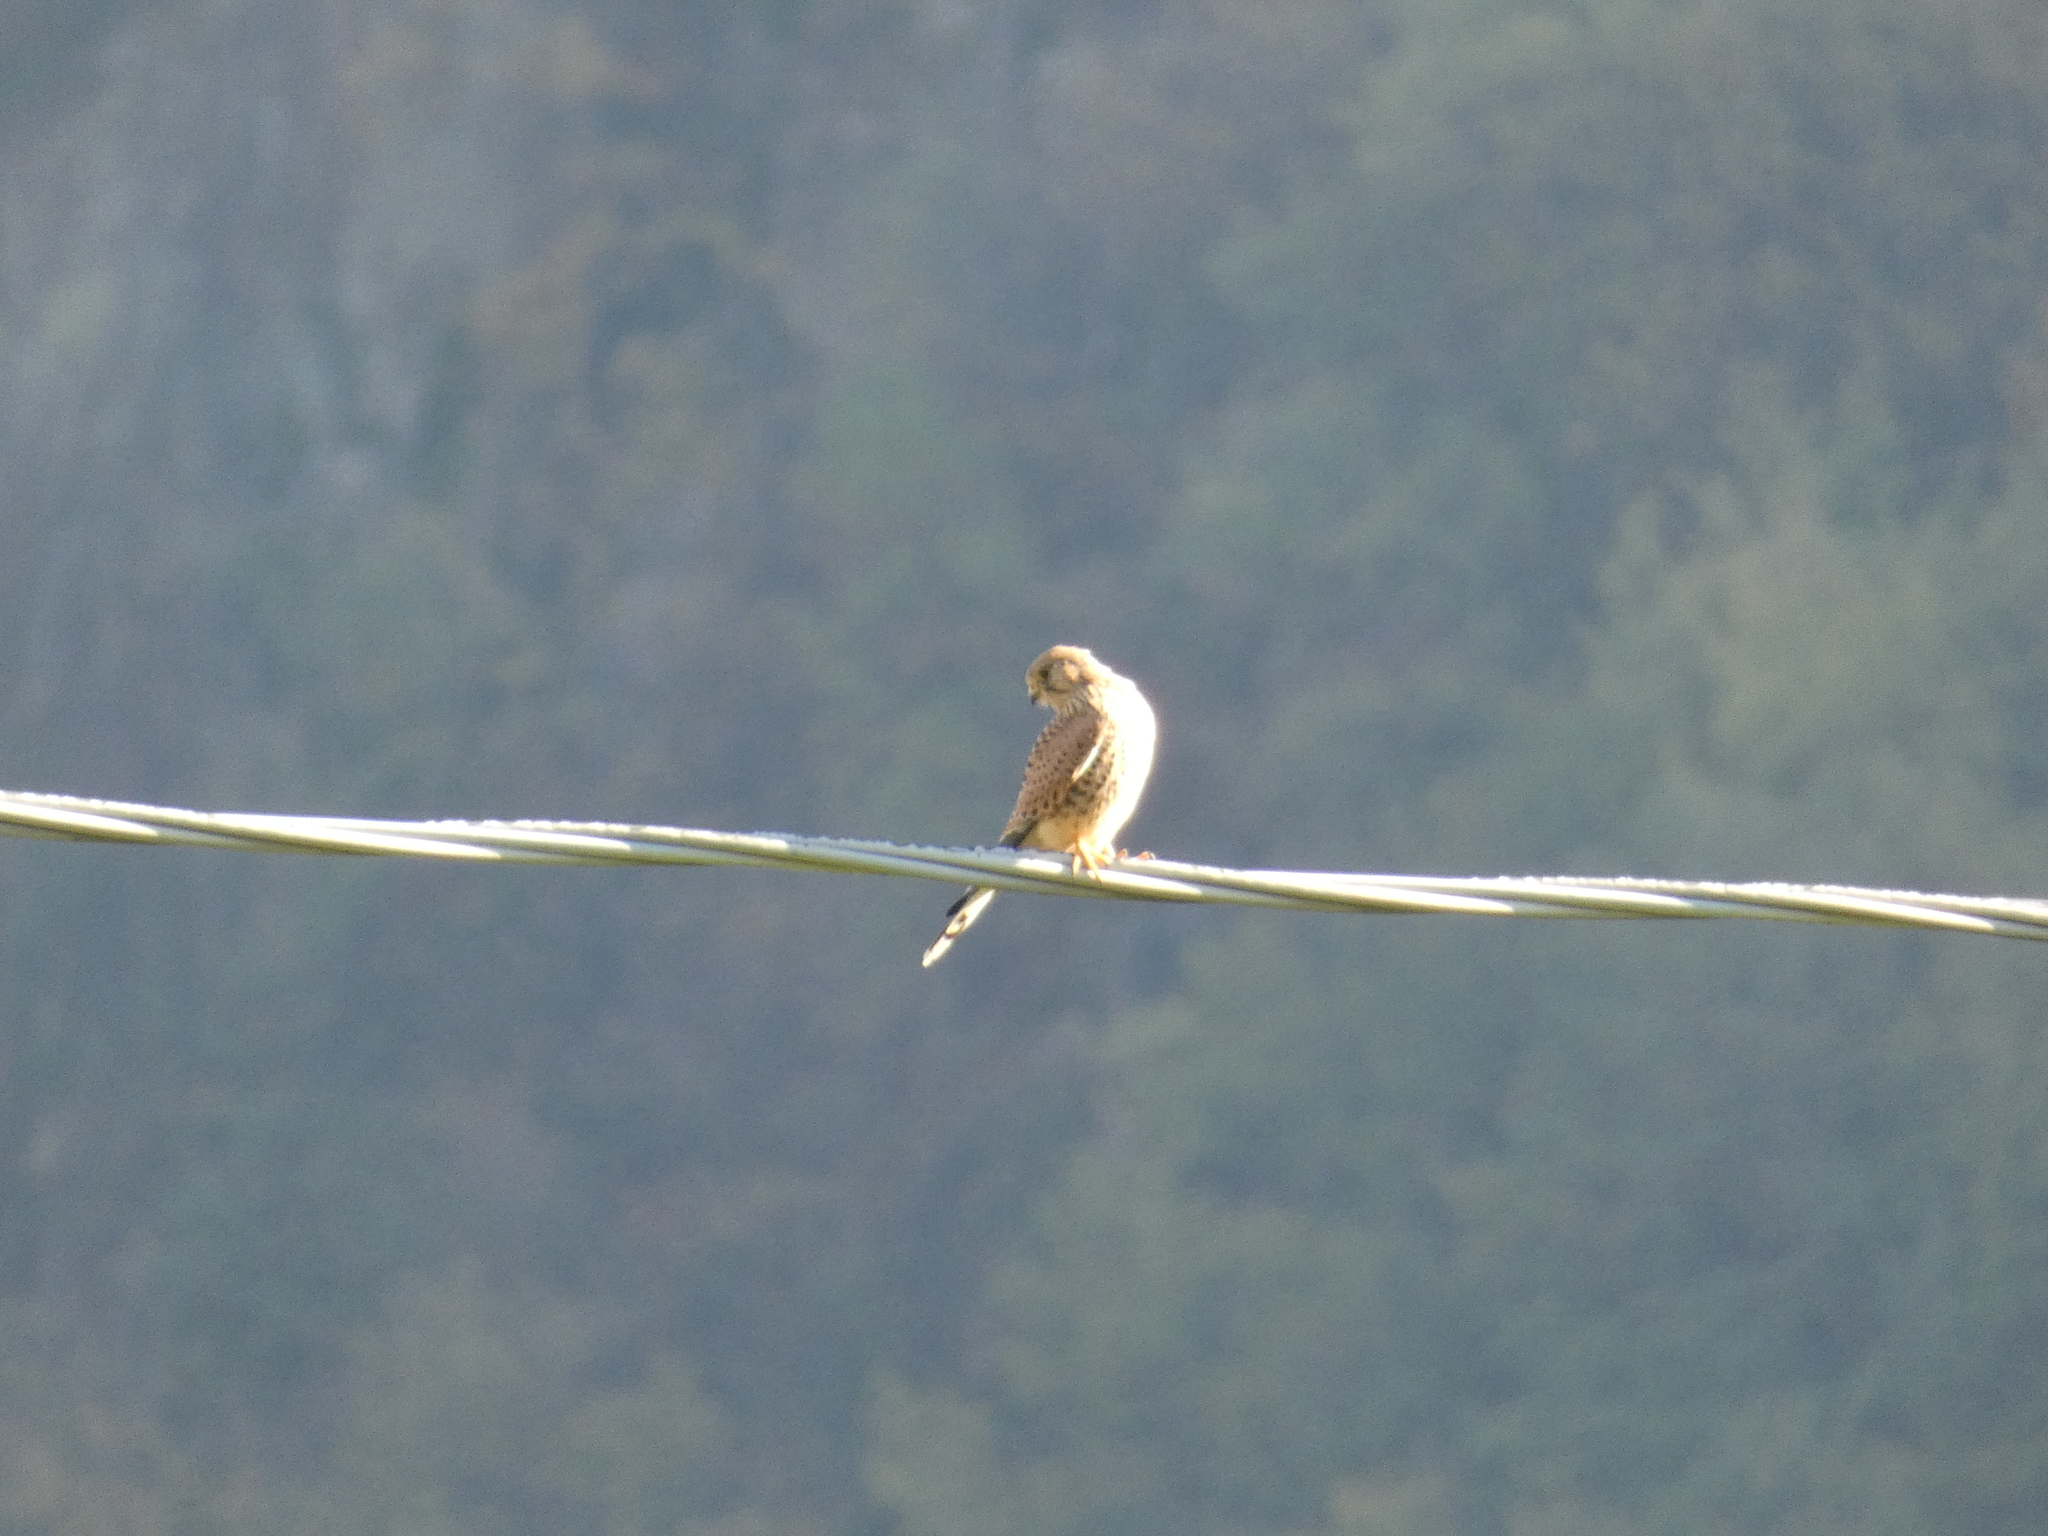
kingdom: Animalia
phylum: Chordata
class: Aves
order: Falconiformes
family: Falconidae
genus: Falco
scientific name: Falco tinnunculus
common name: Common kestrel
